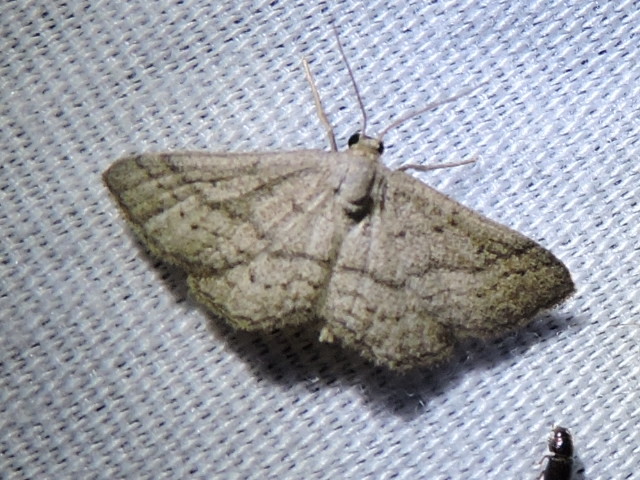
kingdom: Animalia
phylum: Arthropoda
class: Insecta
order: Lepidoptera
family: Geometridae
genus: Lobocleta
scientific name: Lobocleta ossularia
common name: Drab brown wave
